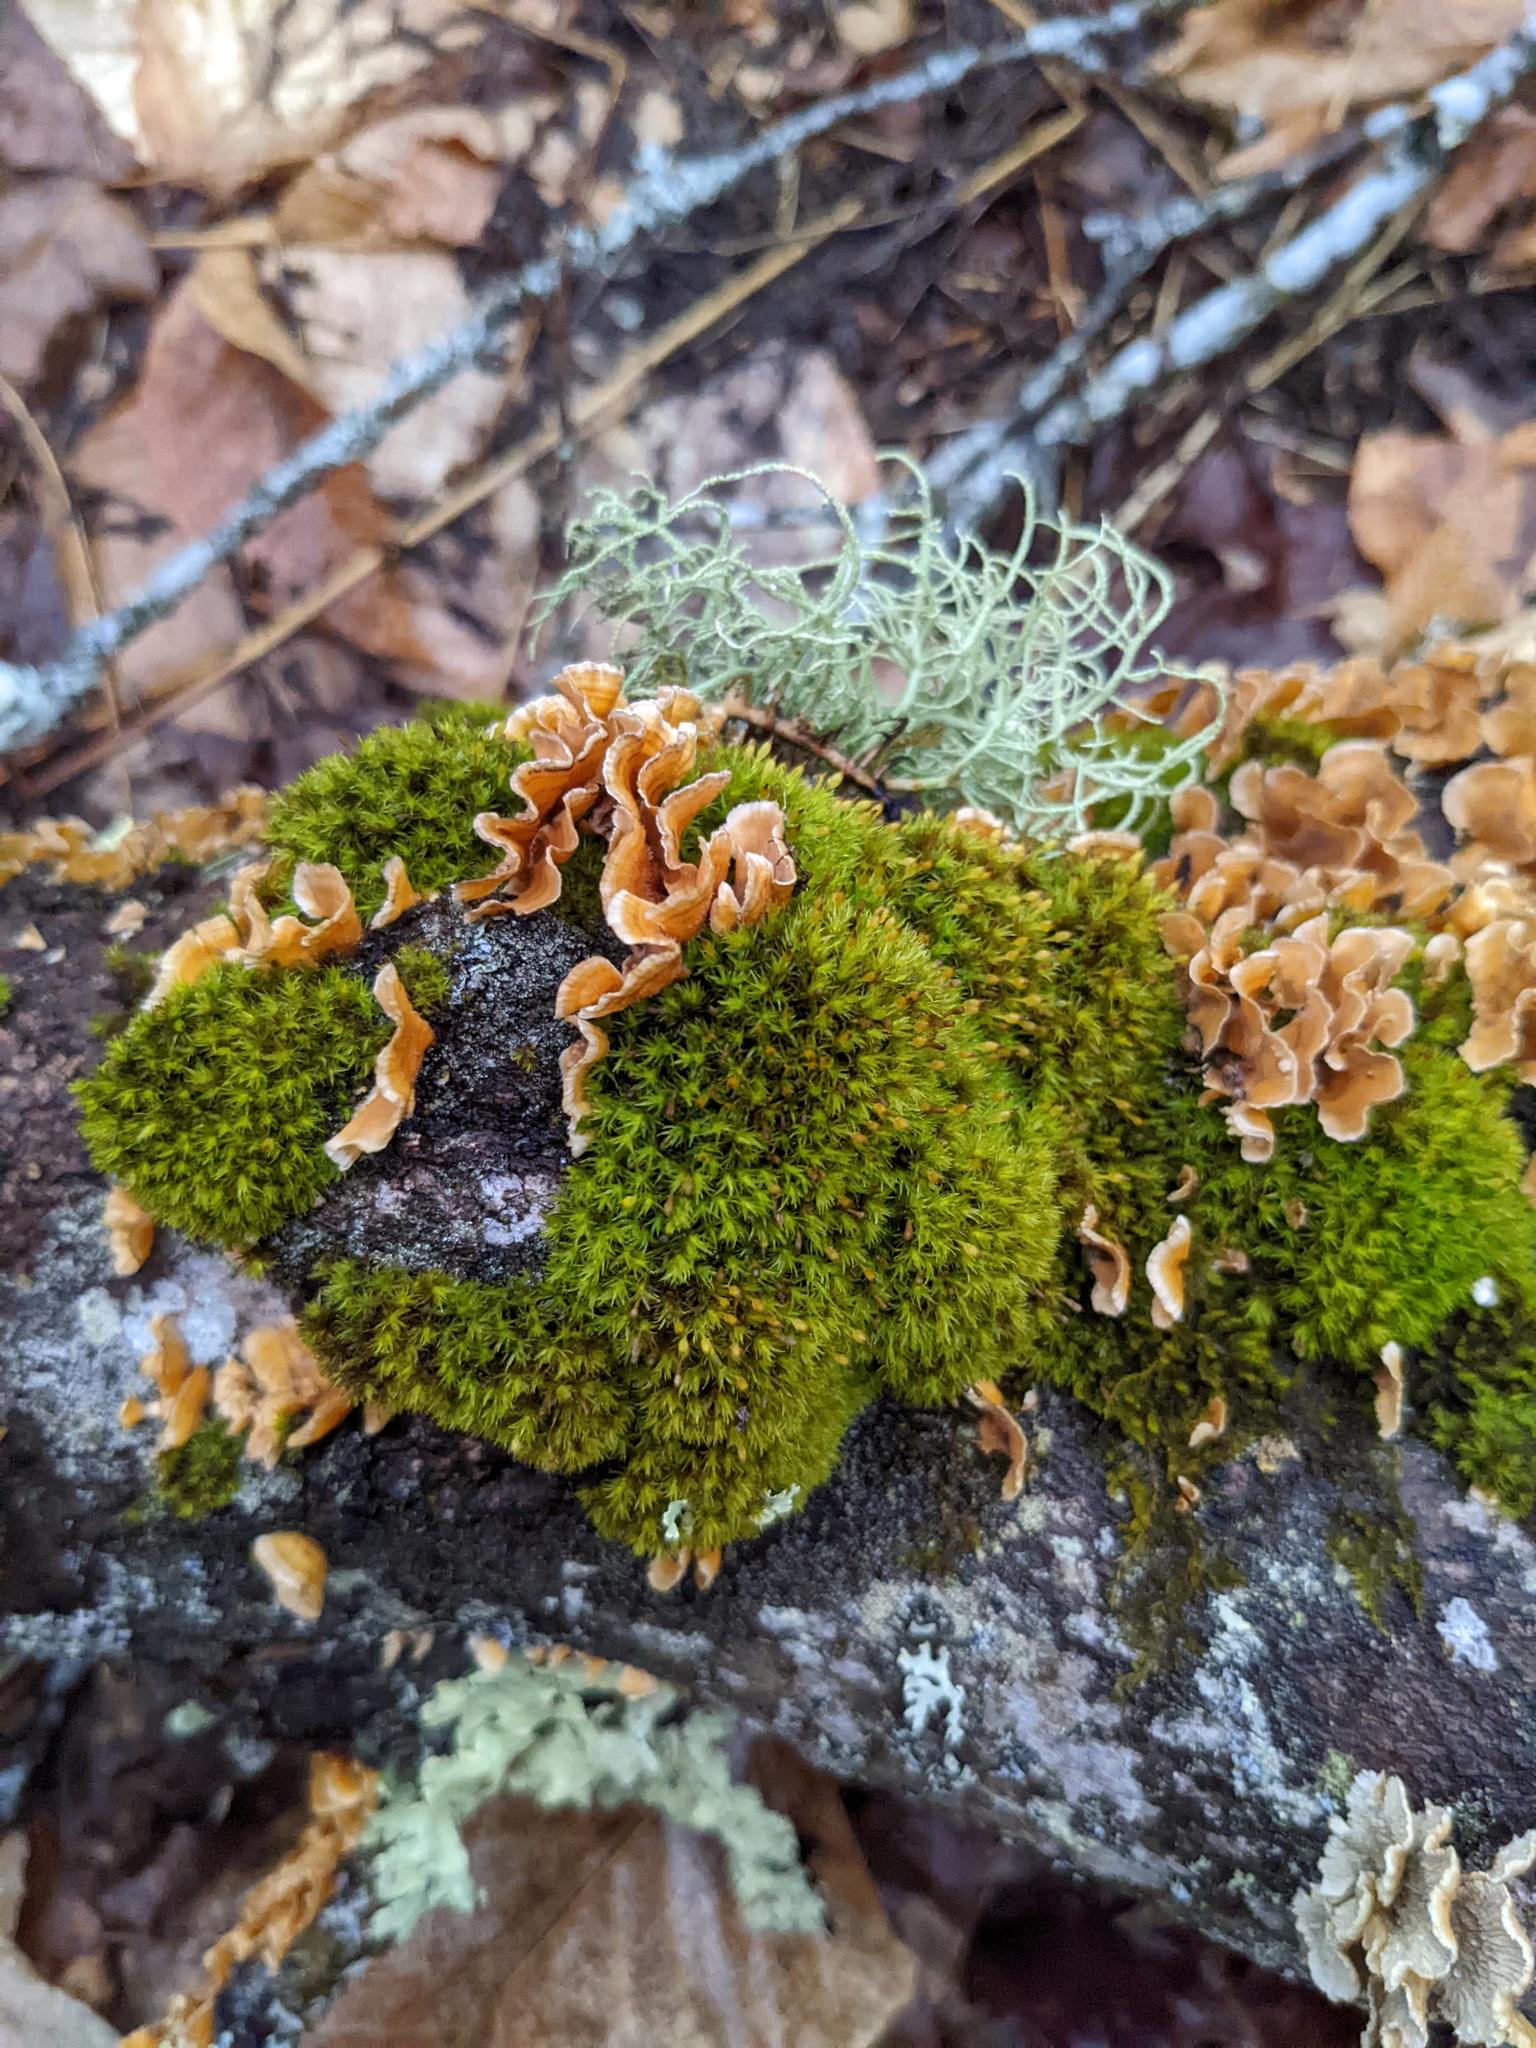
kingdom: Plantae
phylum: Bryophyta
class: Bryopsida
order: Orthotrichales
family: Orthotrichaceae
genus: Ulota
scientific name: Ulota crispa
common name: Crisped pincushion moss
